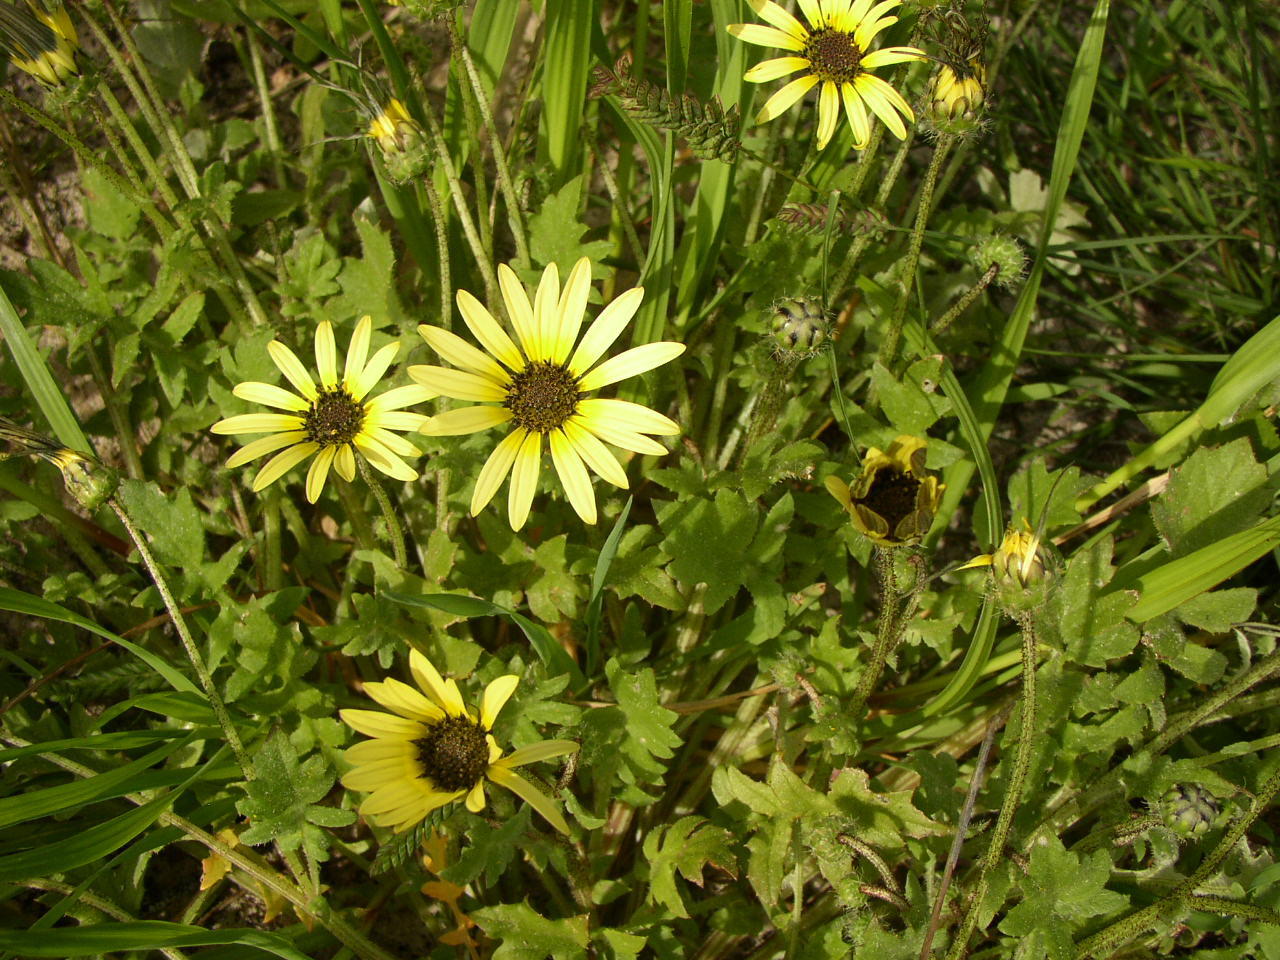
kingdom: Plantae
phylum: Tracheophyta
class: Magnoliopsida
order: Asterales
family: Asteraceae
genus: Arctotheca
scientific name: Arctotheca calendula
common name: Capeweed
